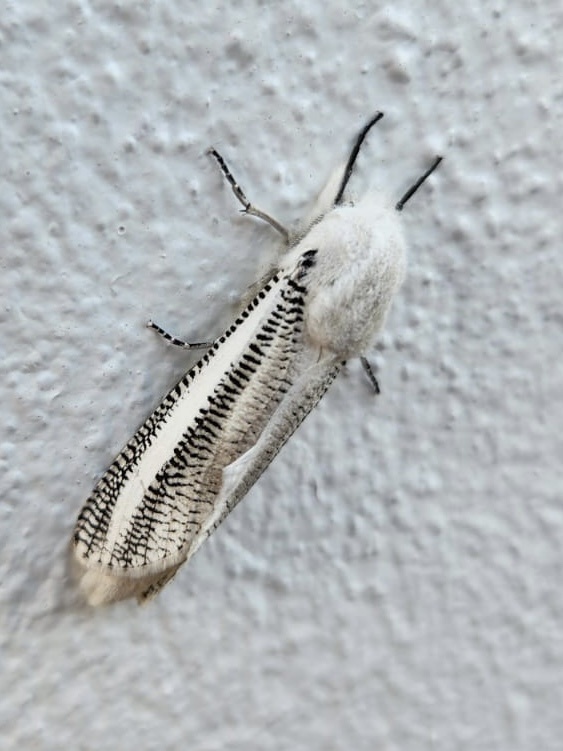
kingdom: Animalia
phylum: Arthropoda
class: Insecta
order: Lepidoptera
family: Cossidae
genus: Azygophleps
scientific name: Azygophleps asylas
